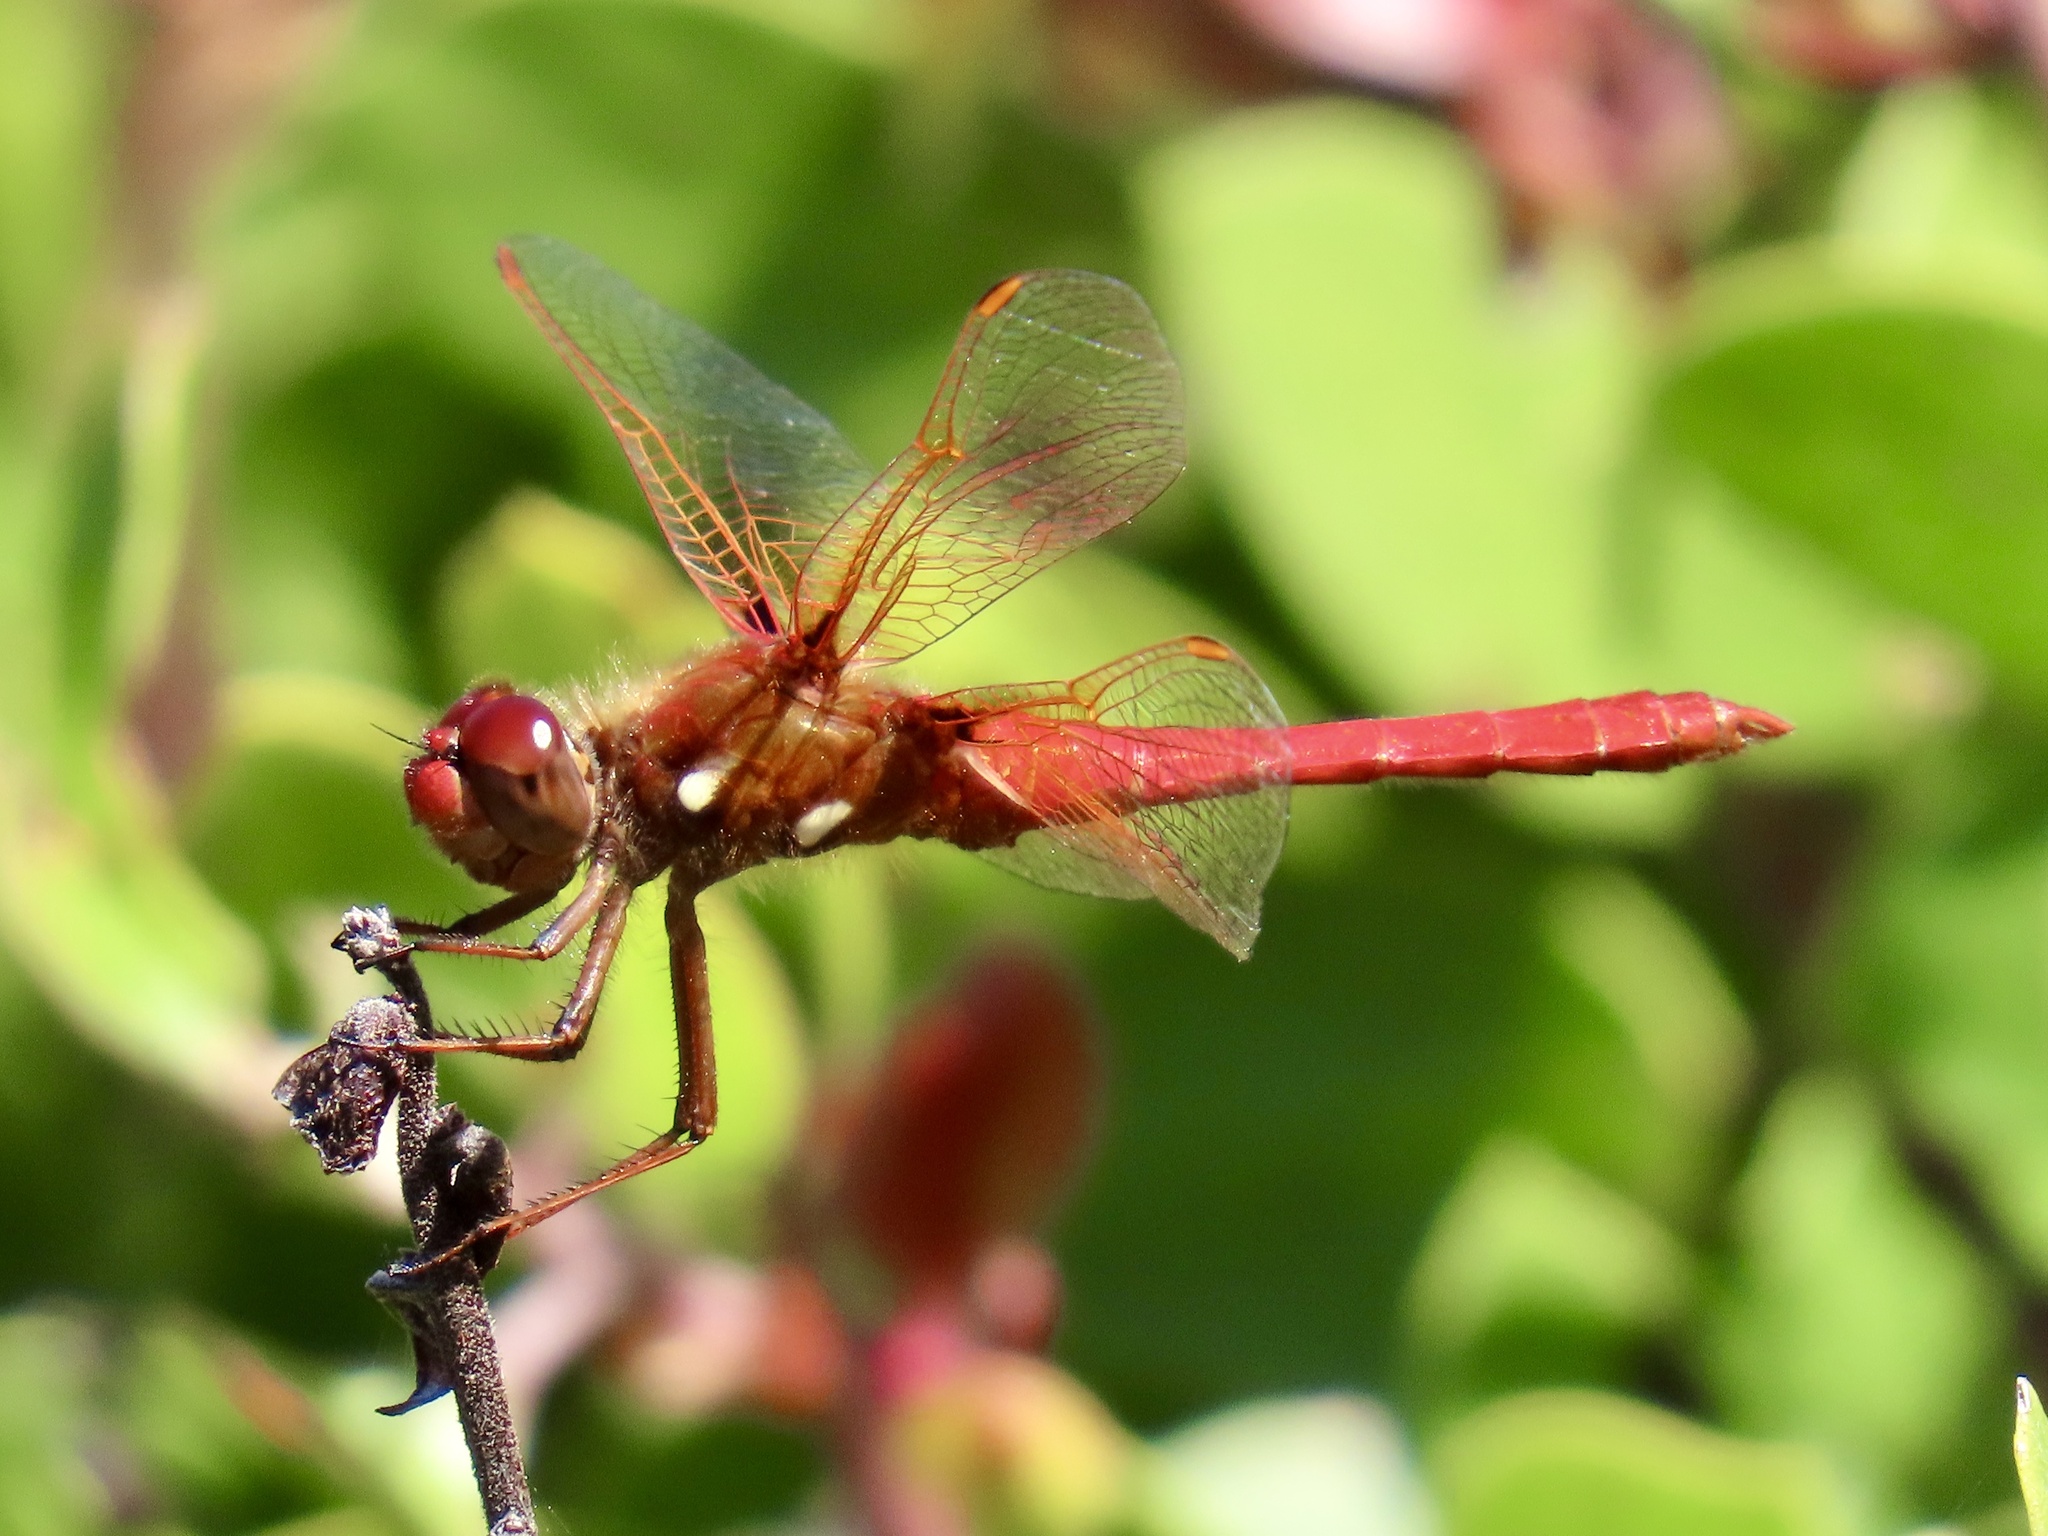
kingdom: Animalia
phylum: Arthropoda
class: Insecta
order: Odonata
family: Libellulidae
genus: Sympetrum
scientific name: Sympetrum illotum
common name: Cardinal meadowhawk
